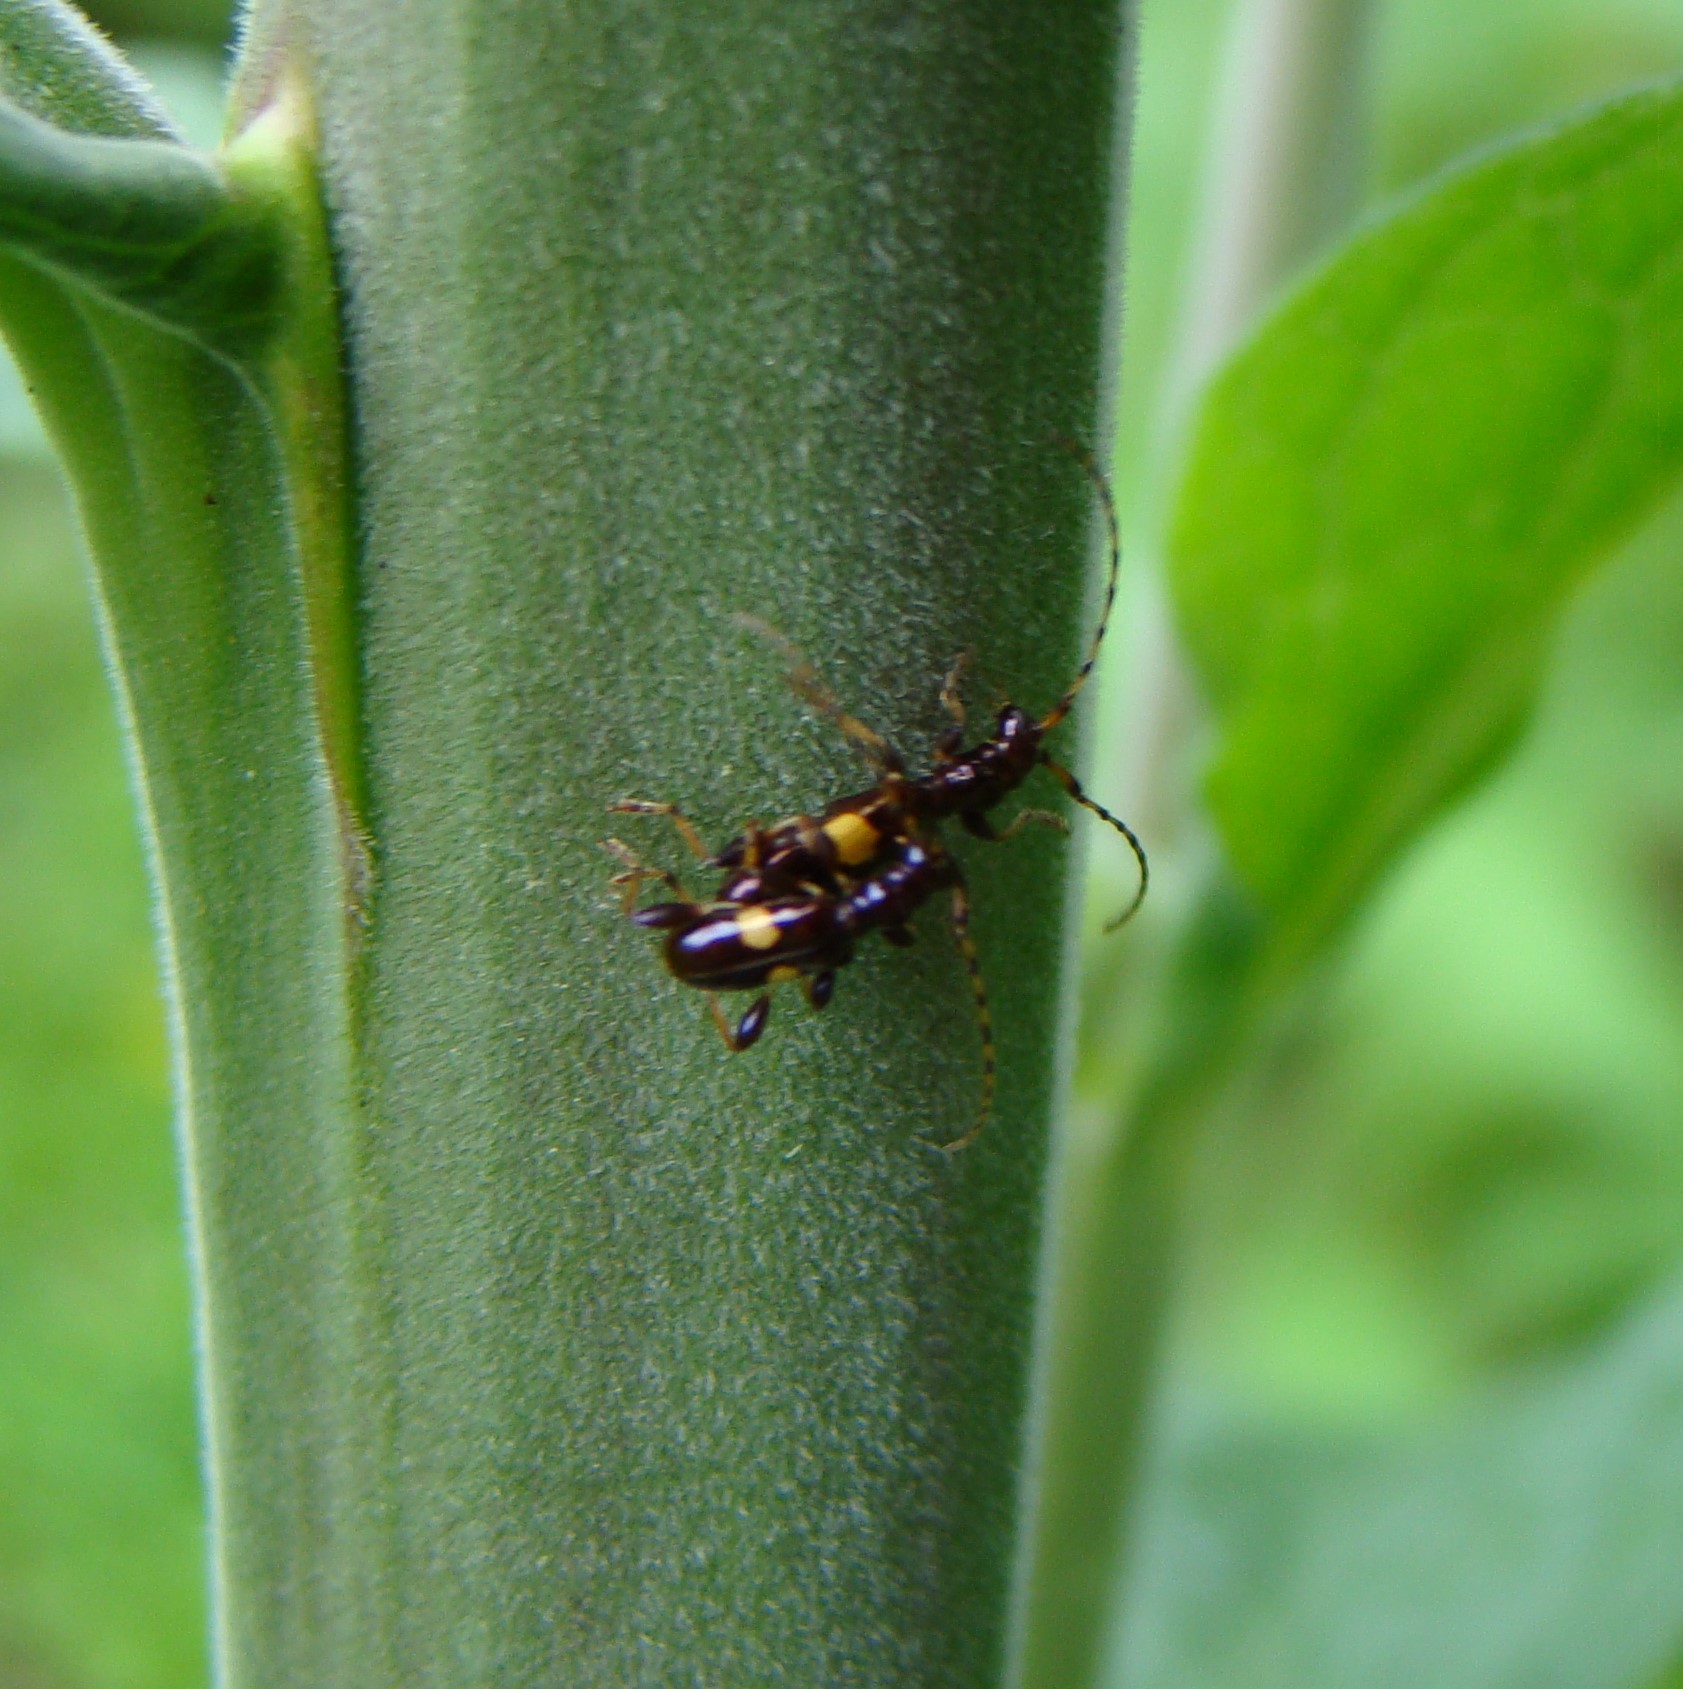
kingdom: Animalia
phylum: Arthropoda
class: Insecta
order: Coleoptera
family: Cerambycidae
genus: Zorion
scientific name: Zorion guttigerum
